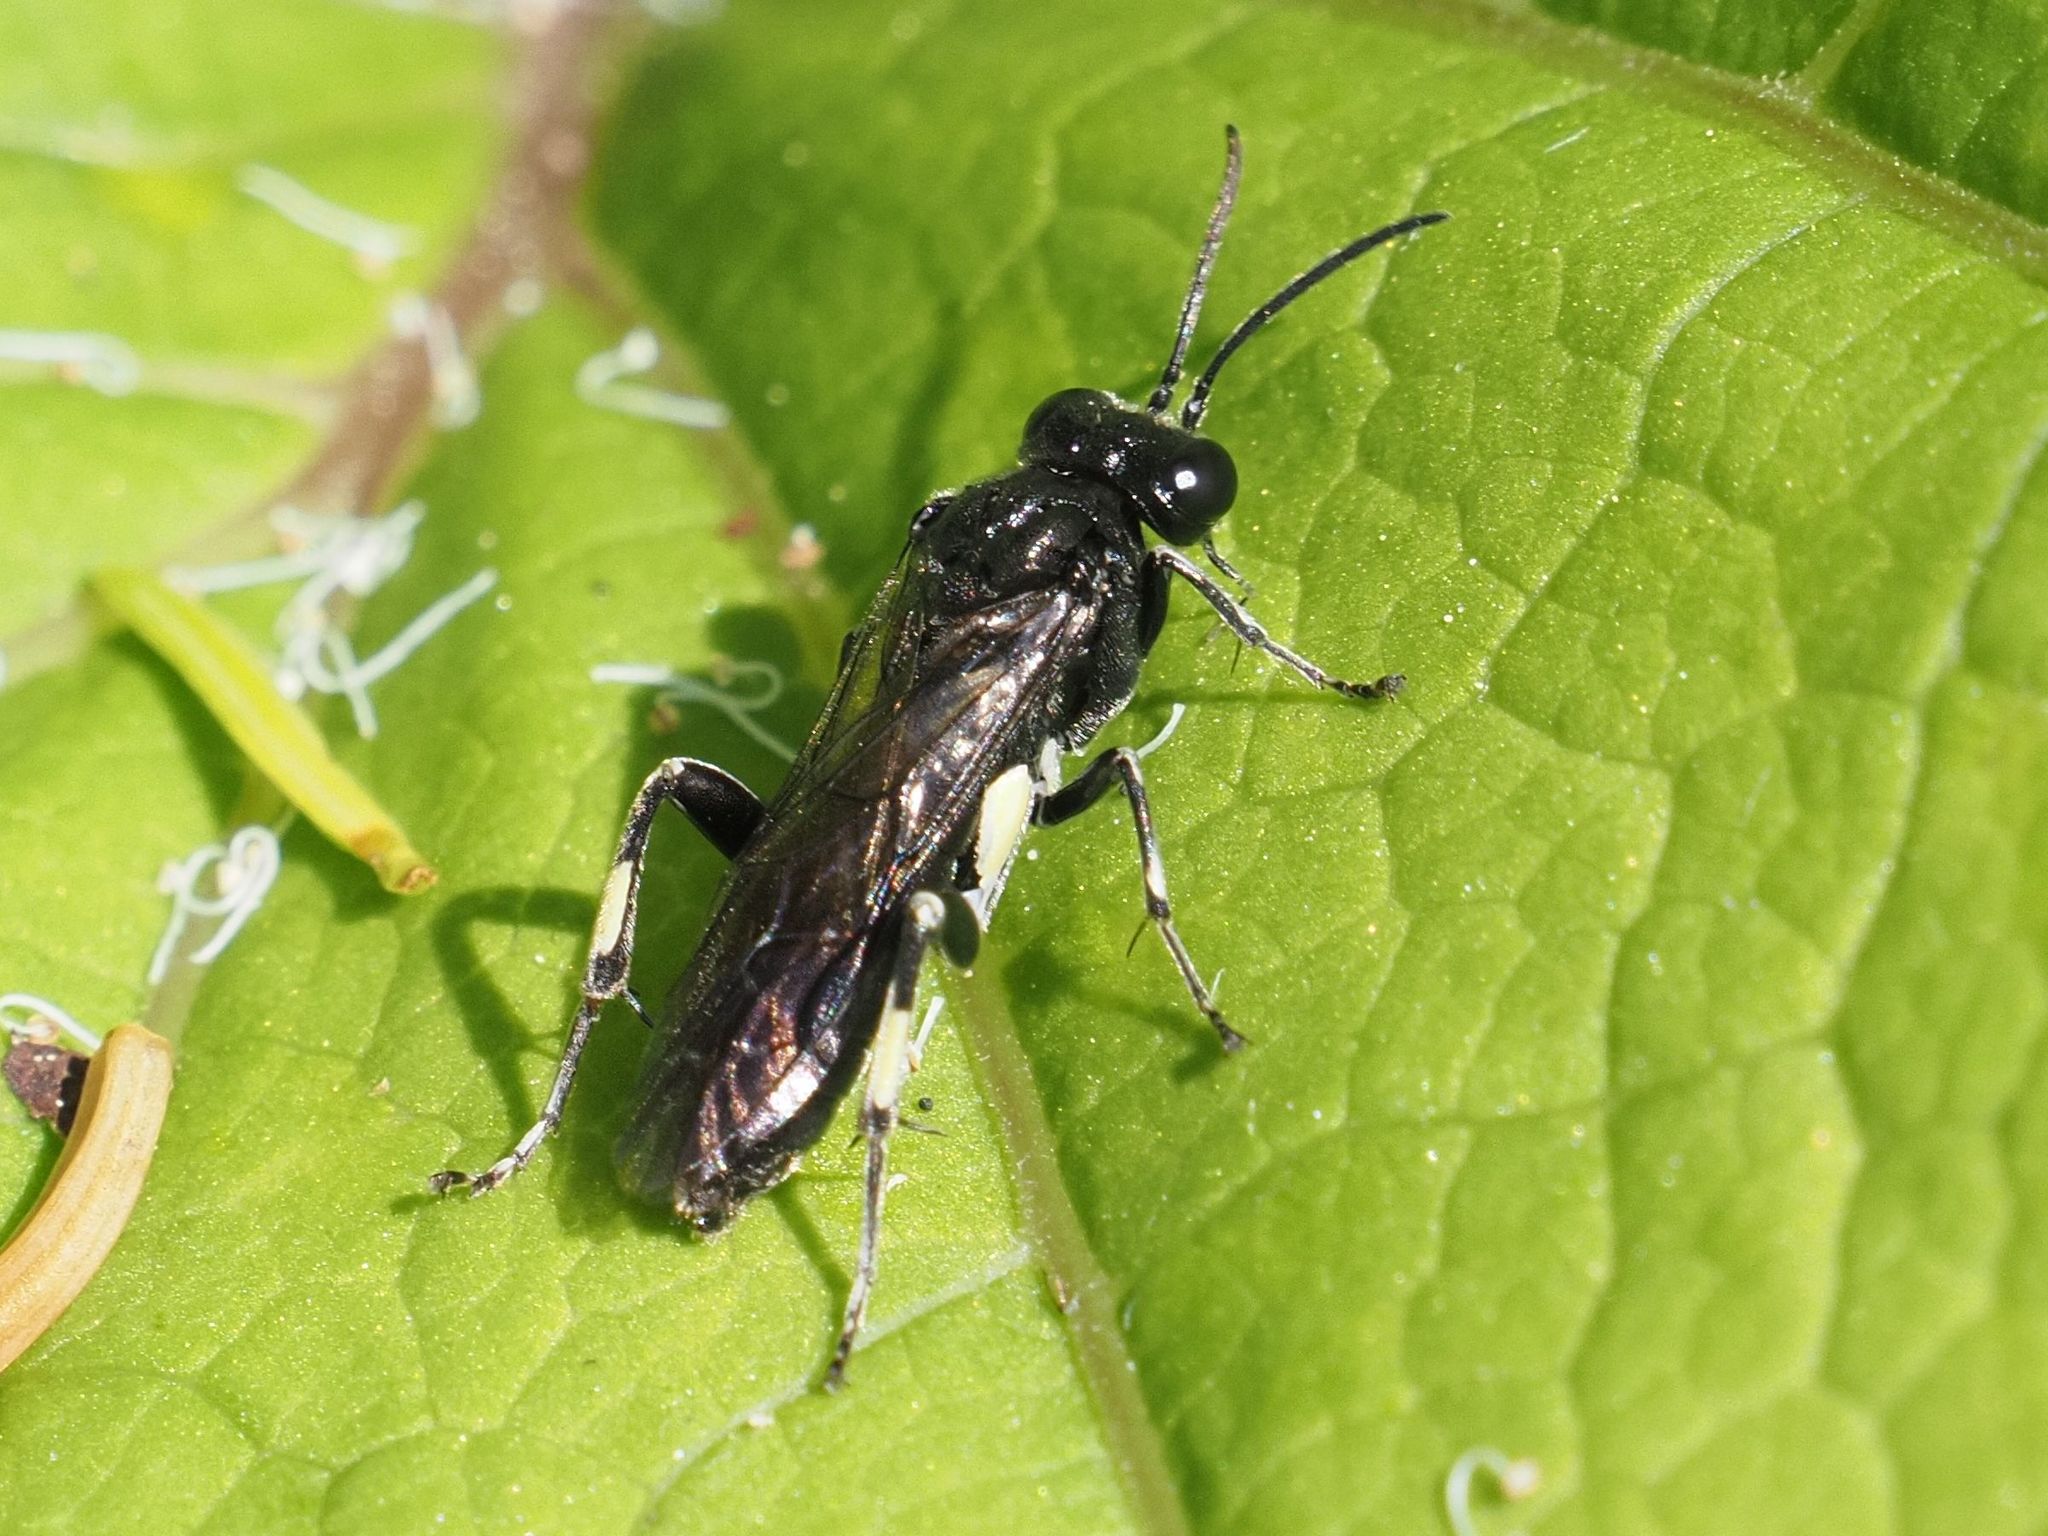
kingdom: Animalia
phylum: Arthropoda
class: Insecta
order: Hymenoptera
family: Tenthredinidae
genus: Macrophya
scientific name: Macrophya ribis
